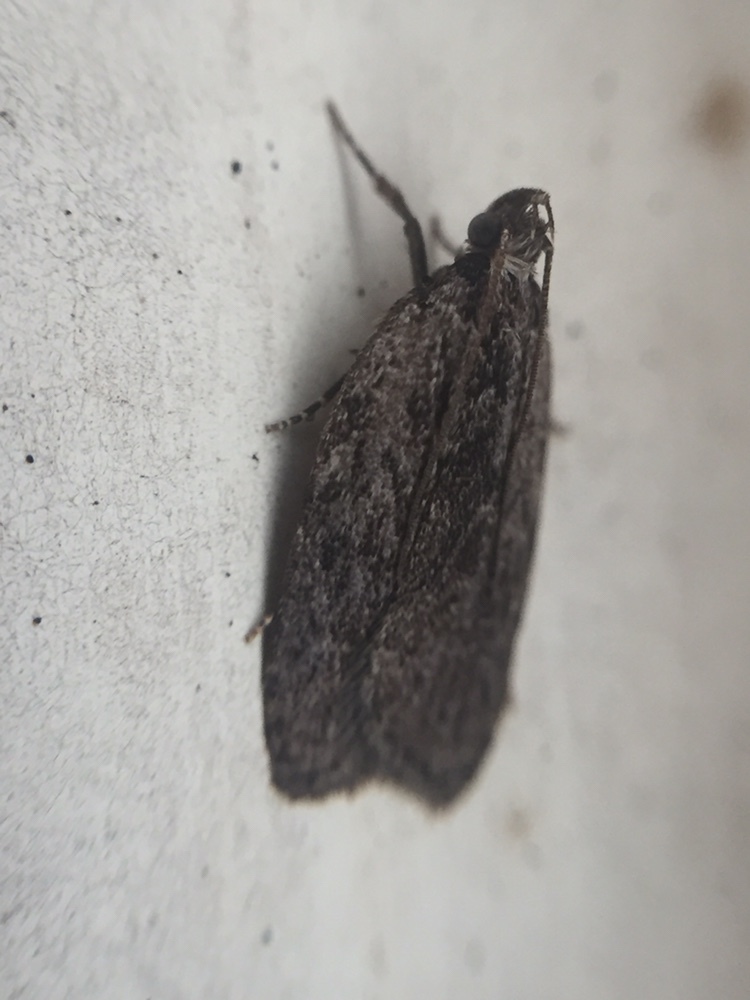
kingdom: Animalia
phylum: Arthropoda
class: Insecta
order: Lepidoptera
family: Depressariidae
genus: Phaeosaces
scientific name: Phaeosaces compsotypa
